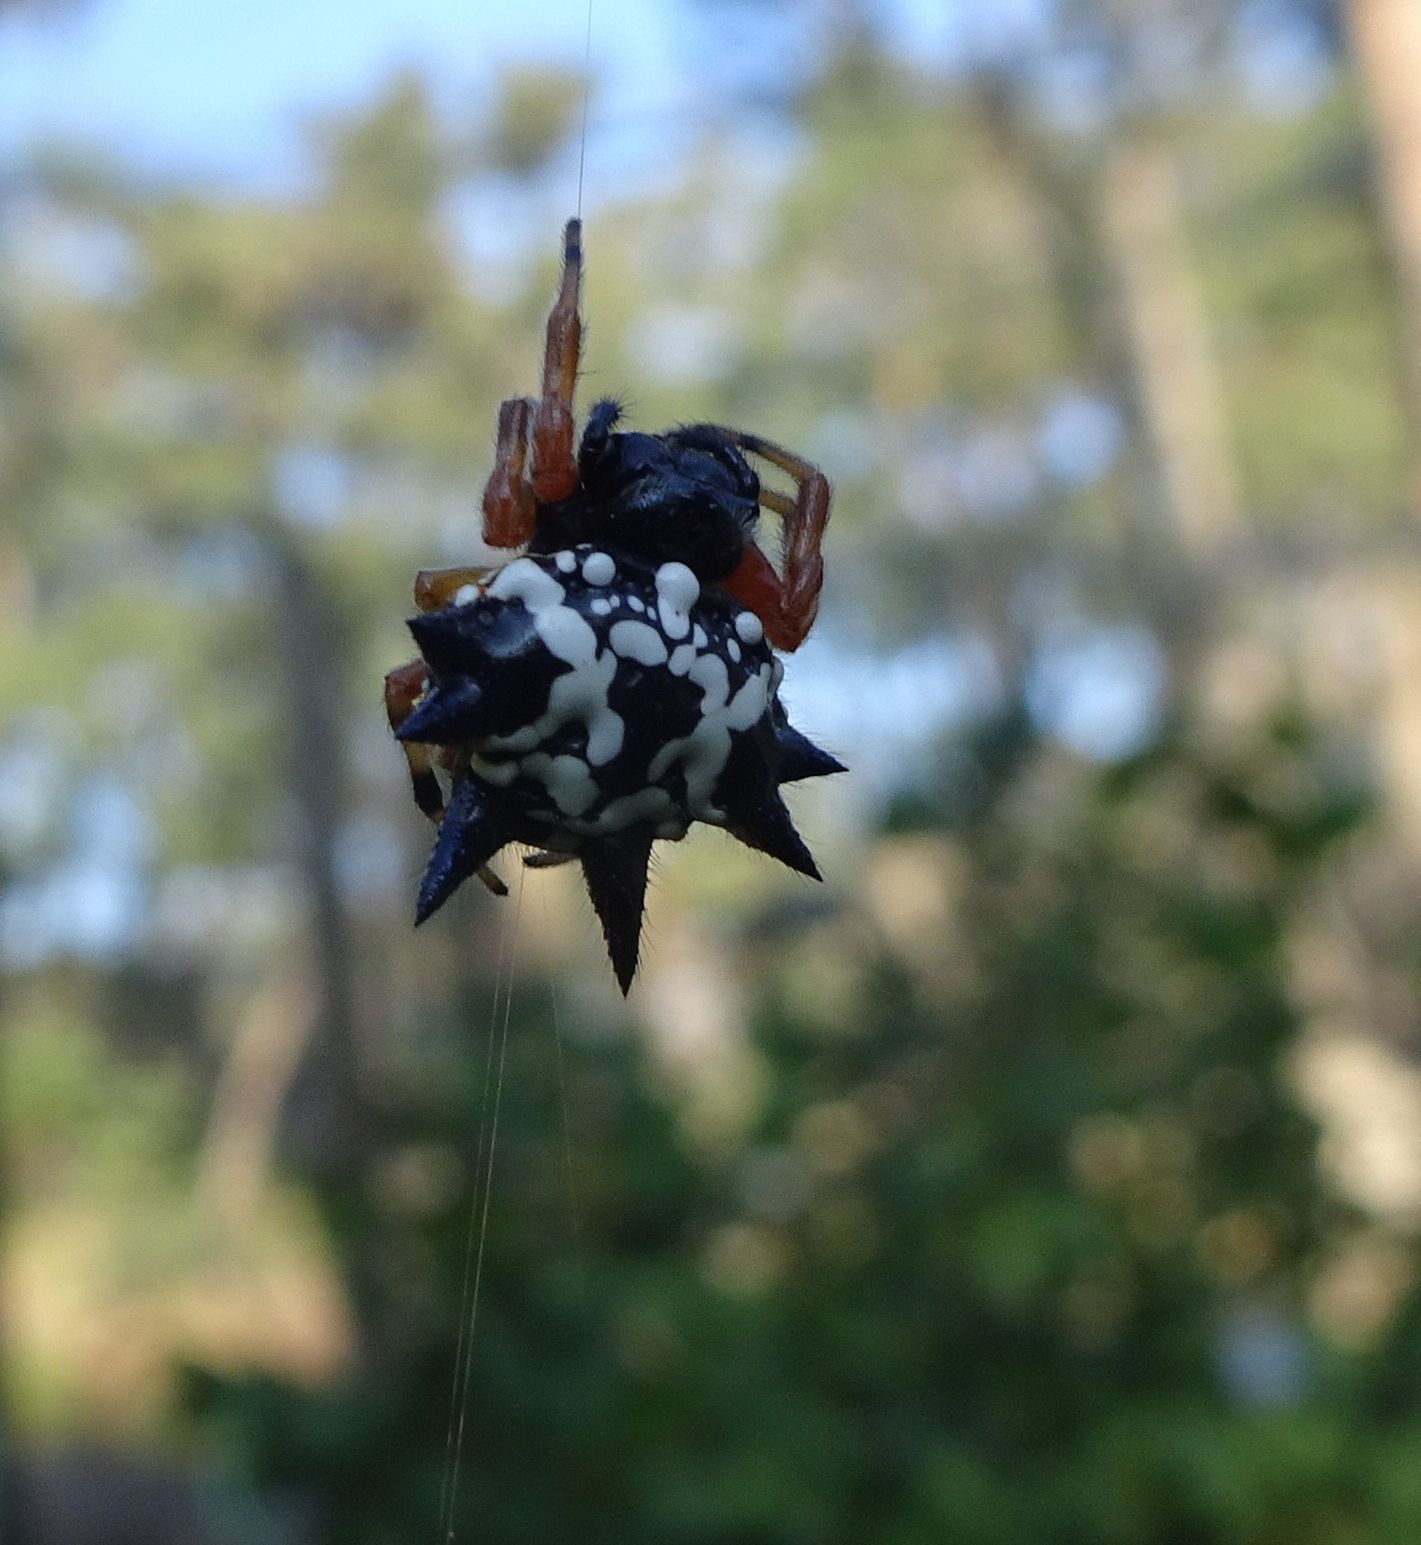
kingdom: Animalia
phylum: Arthropoda
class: Arachnida
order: Araneae
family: Araneidae
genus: Austracantha
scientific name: Austracantha minax
